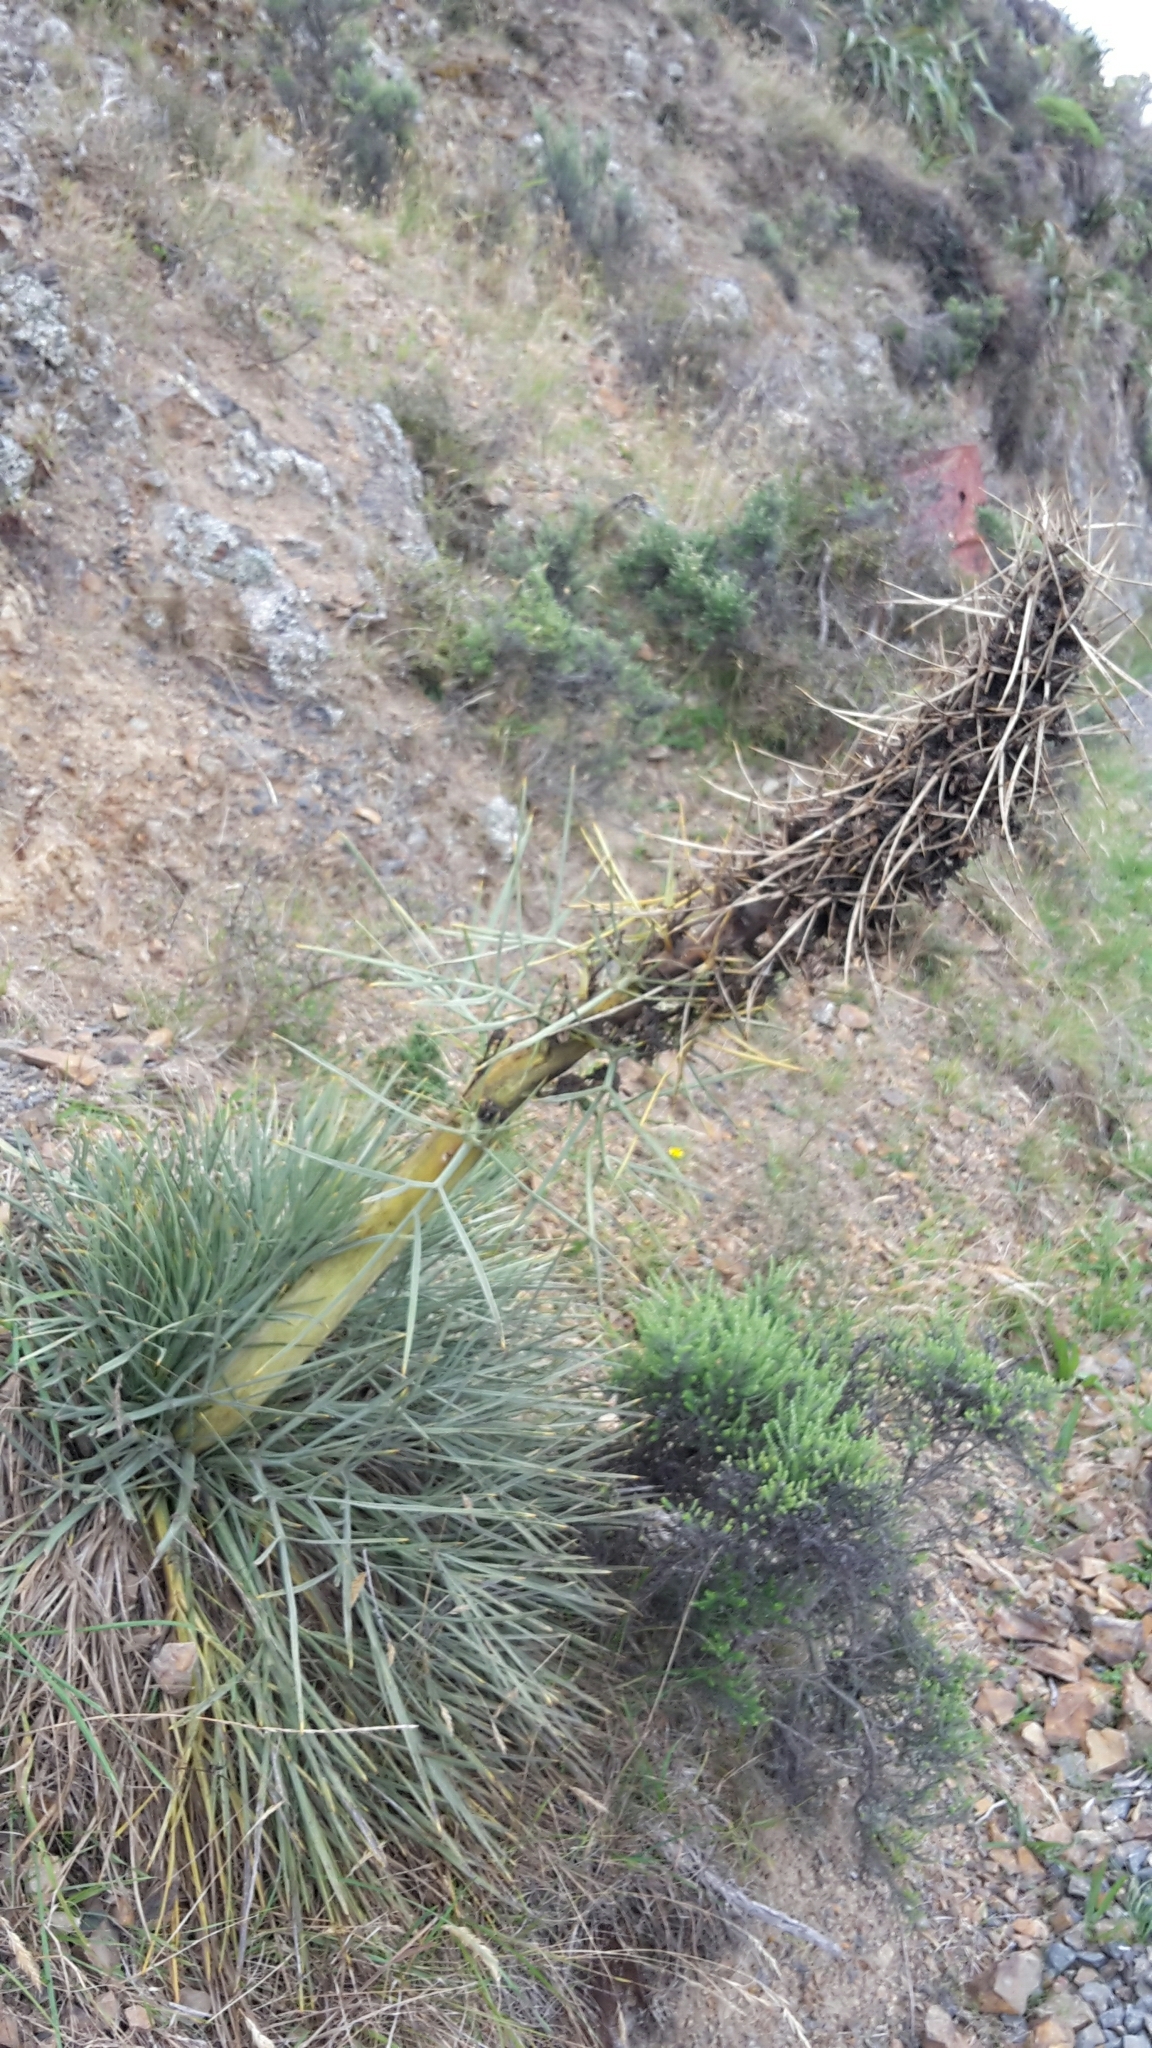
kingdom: Plantae
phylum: Tracheophyta
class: Magnoliopsida
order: Apiales
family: Apiaceae
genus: Aciphylla
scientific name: Aciphylla squarrosa
